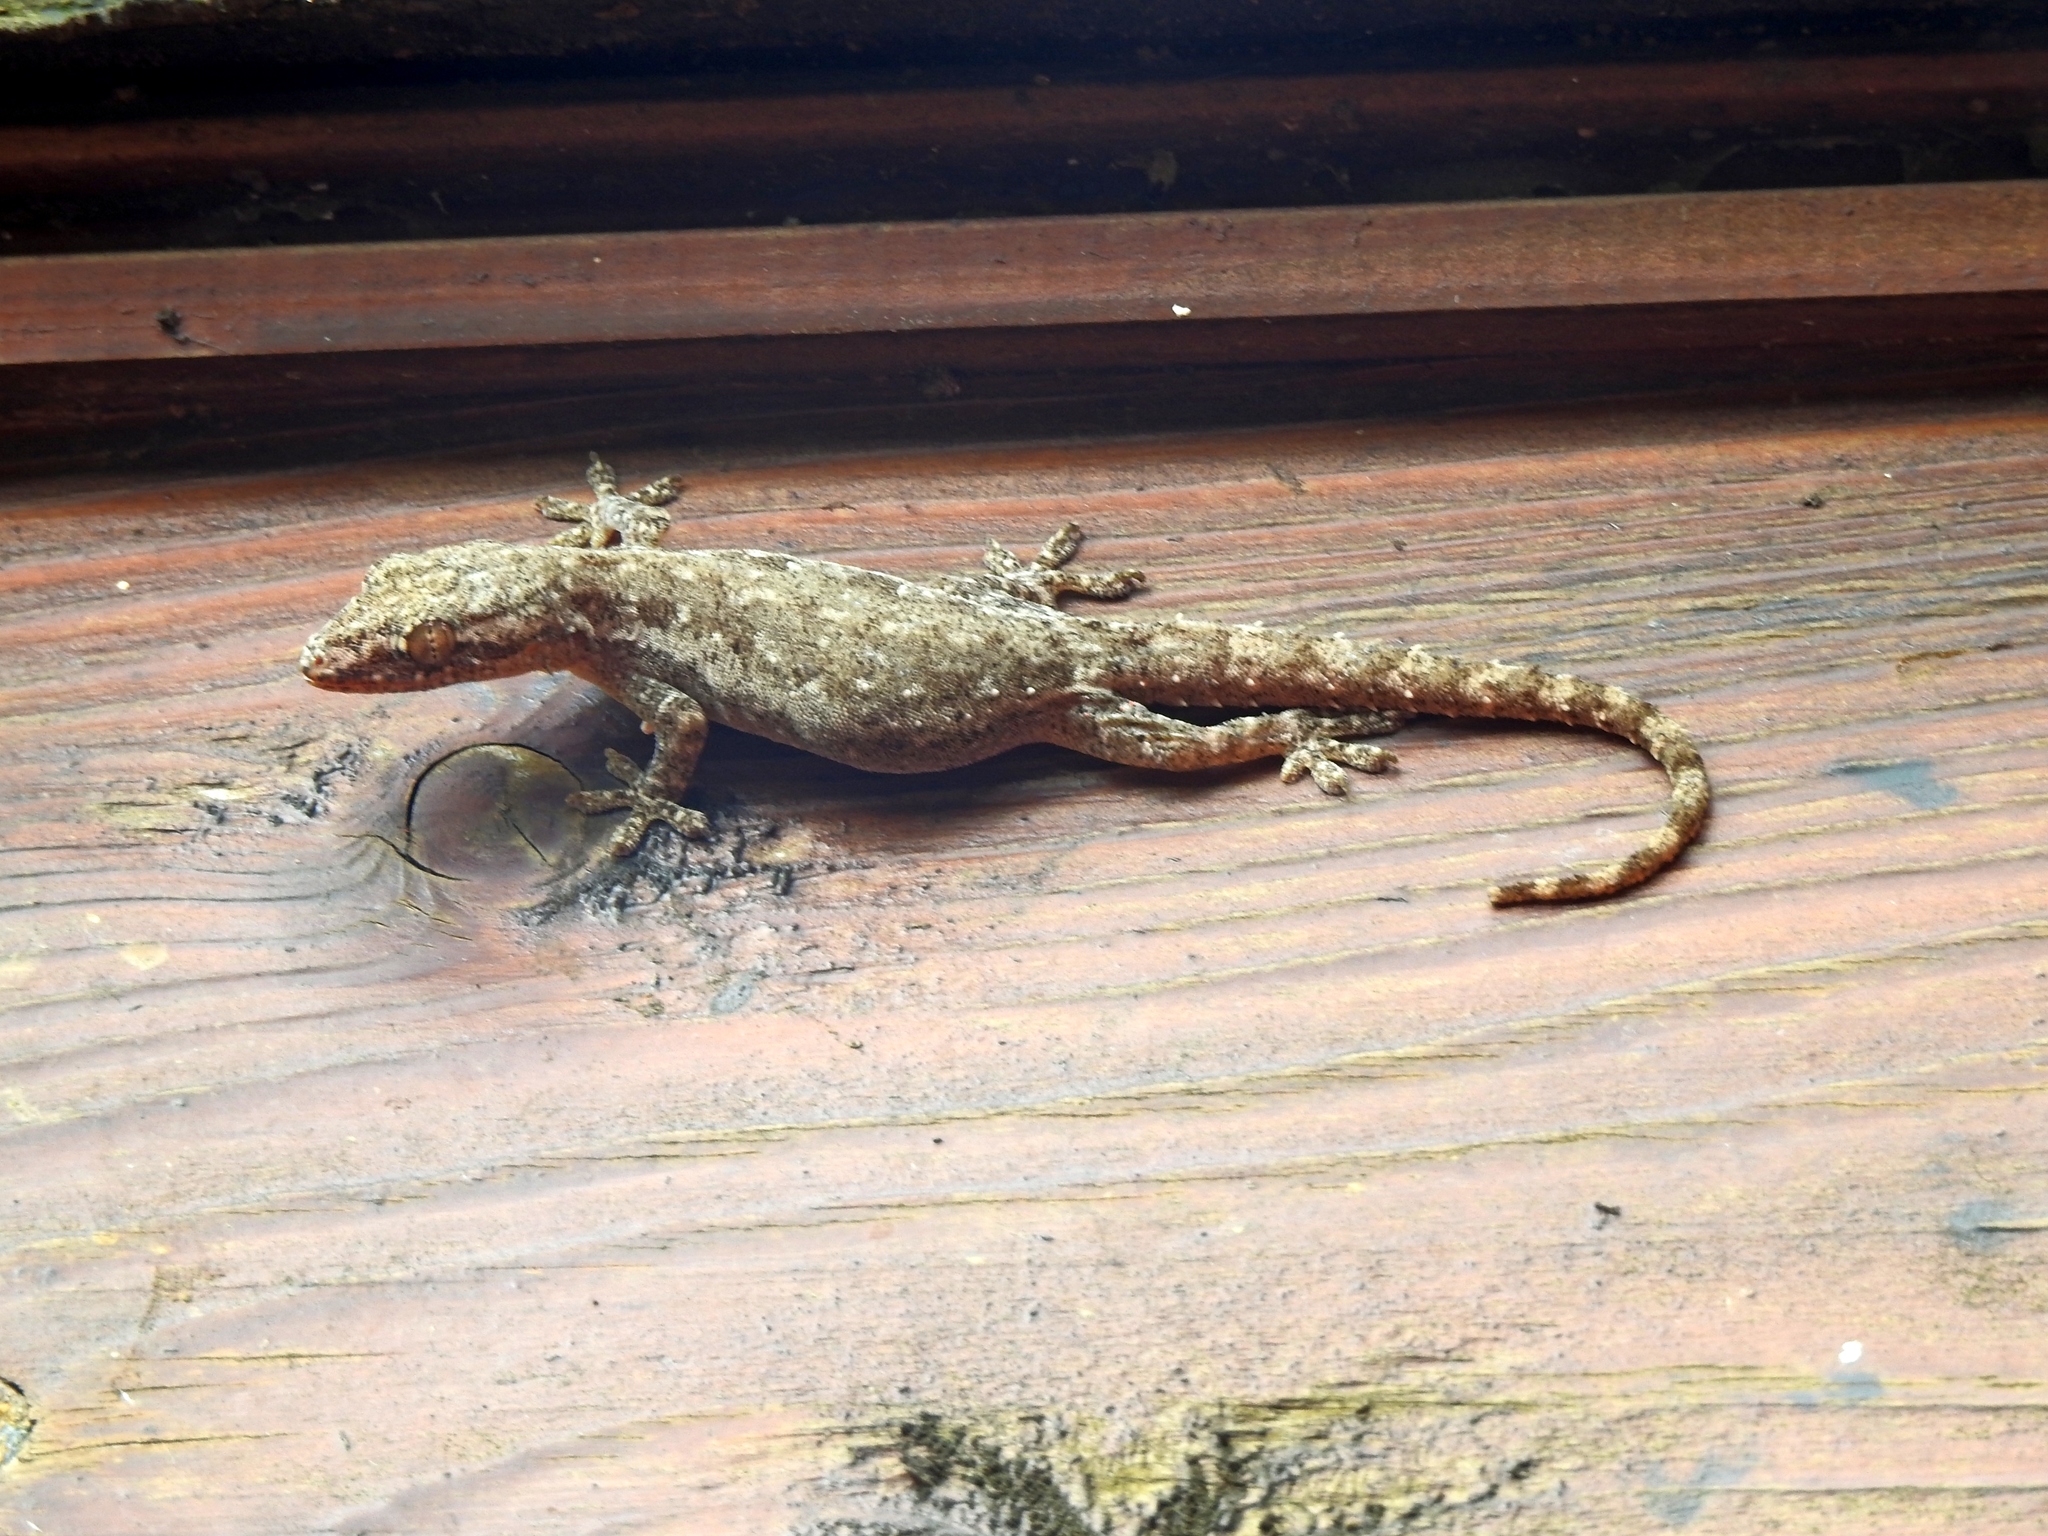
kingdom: Animalia
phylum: Chordata
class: Squamata
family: Gekkonidae
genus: Hemidactylus
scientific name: Hemidactylus frenatus
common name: Common house gecko
